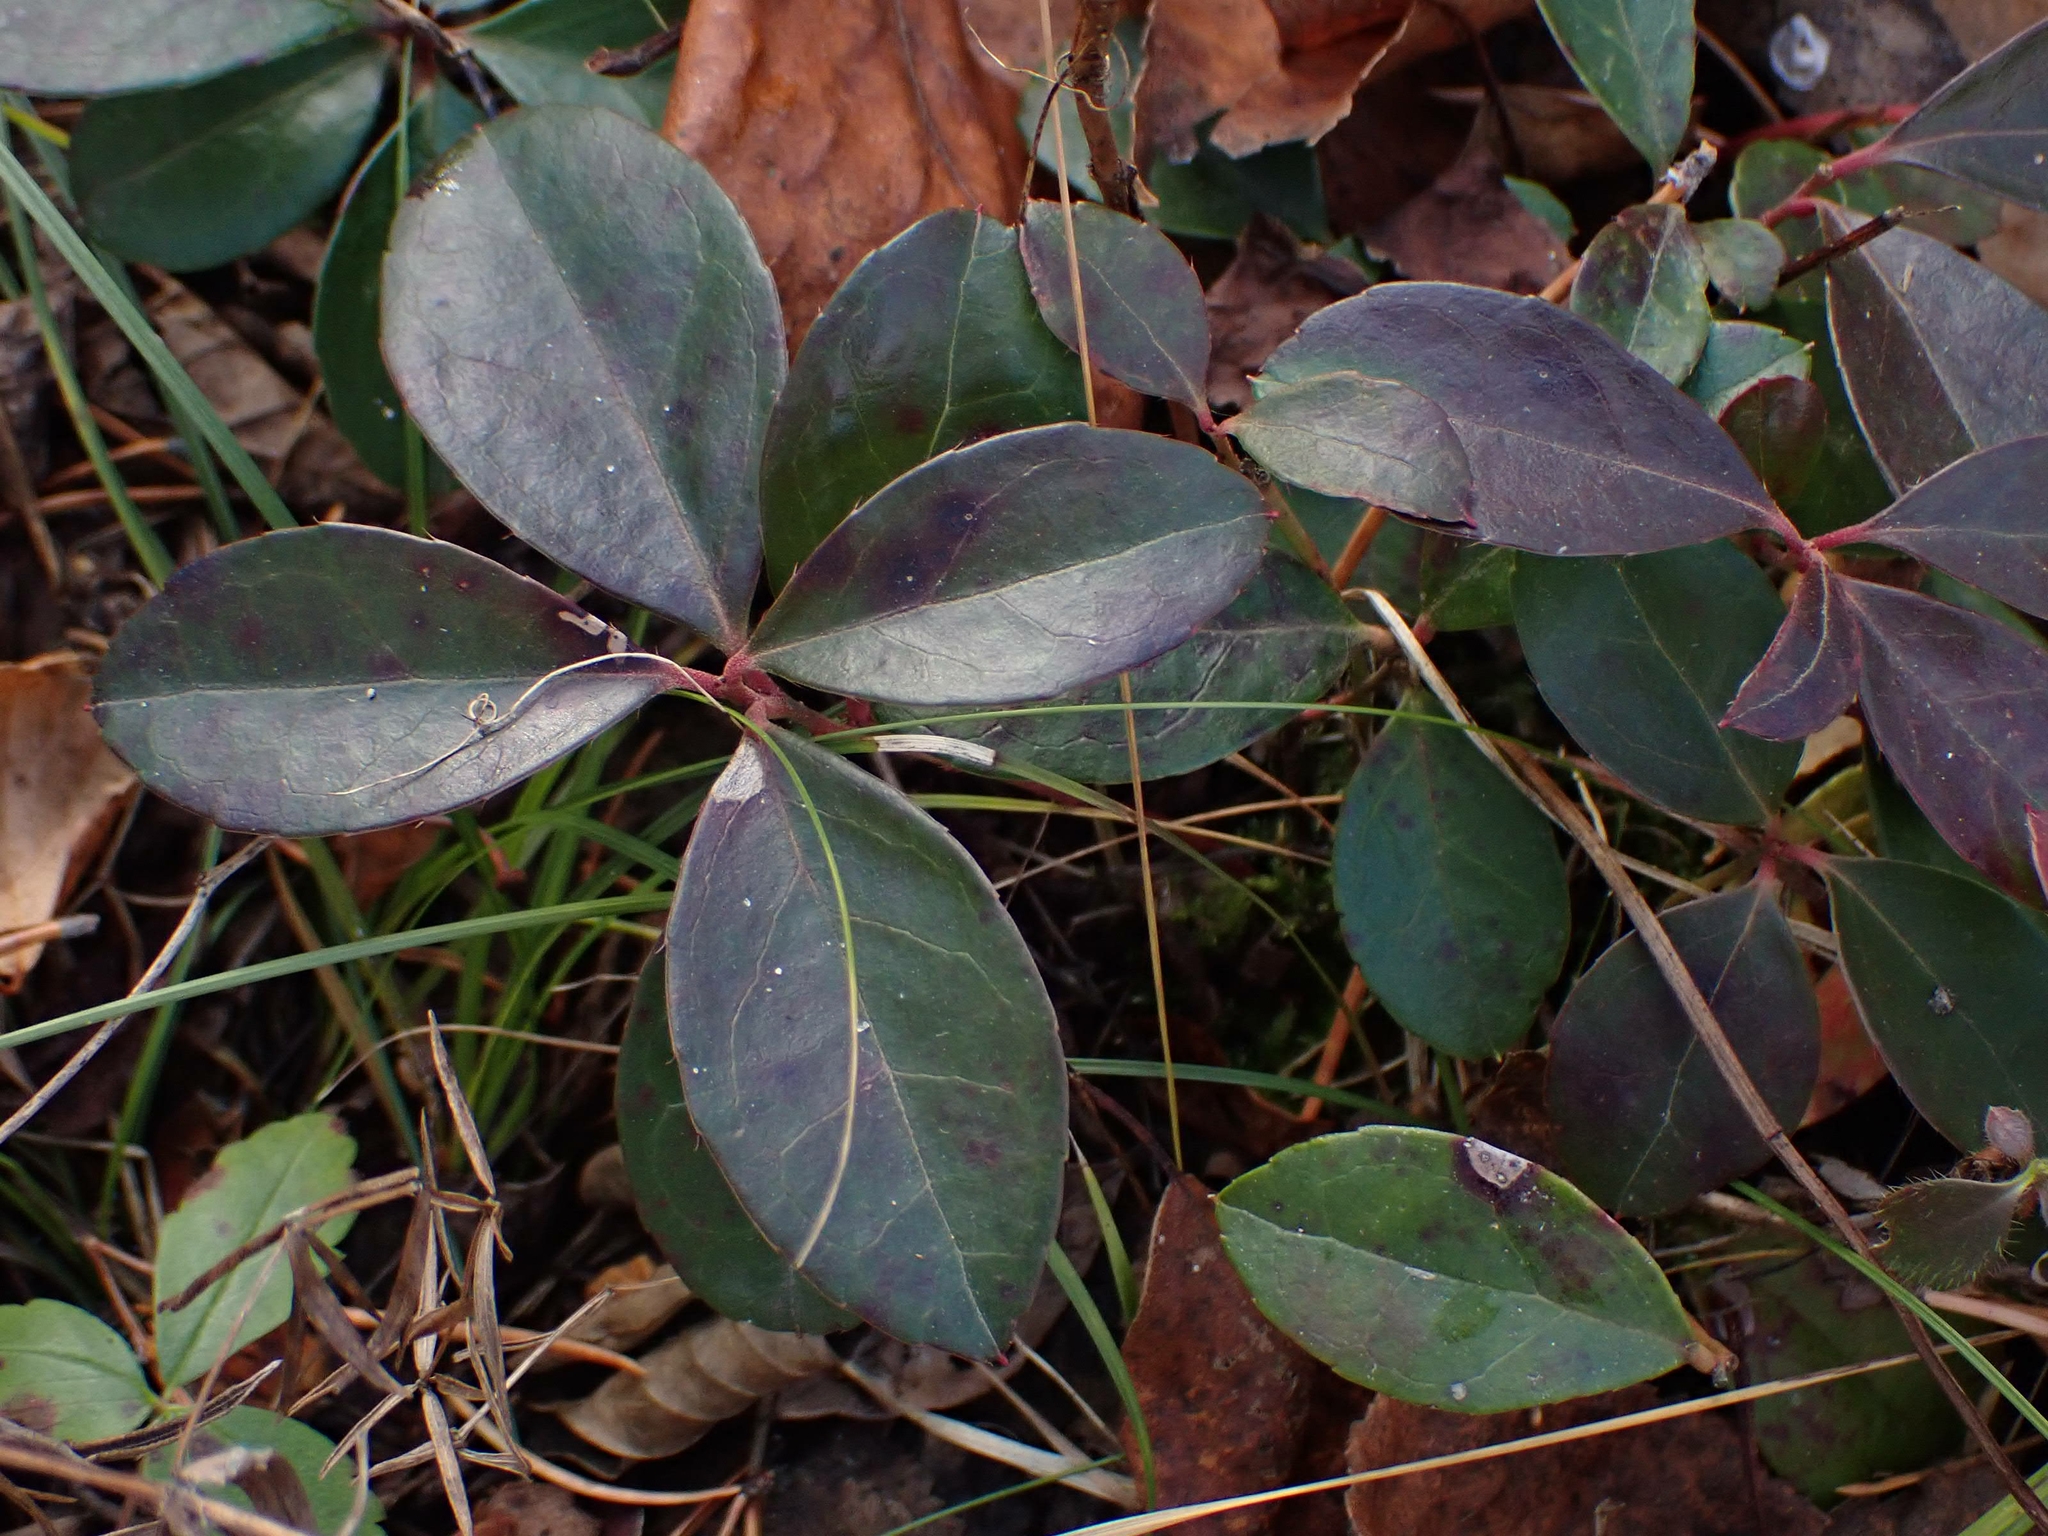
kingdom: Plantae
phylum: Tracheophyta
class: Magnoliopsida
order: Ericales
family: Ericaceae
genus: Gaultheria
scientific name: Gaultheria procumbens
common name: Checkerberry
